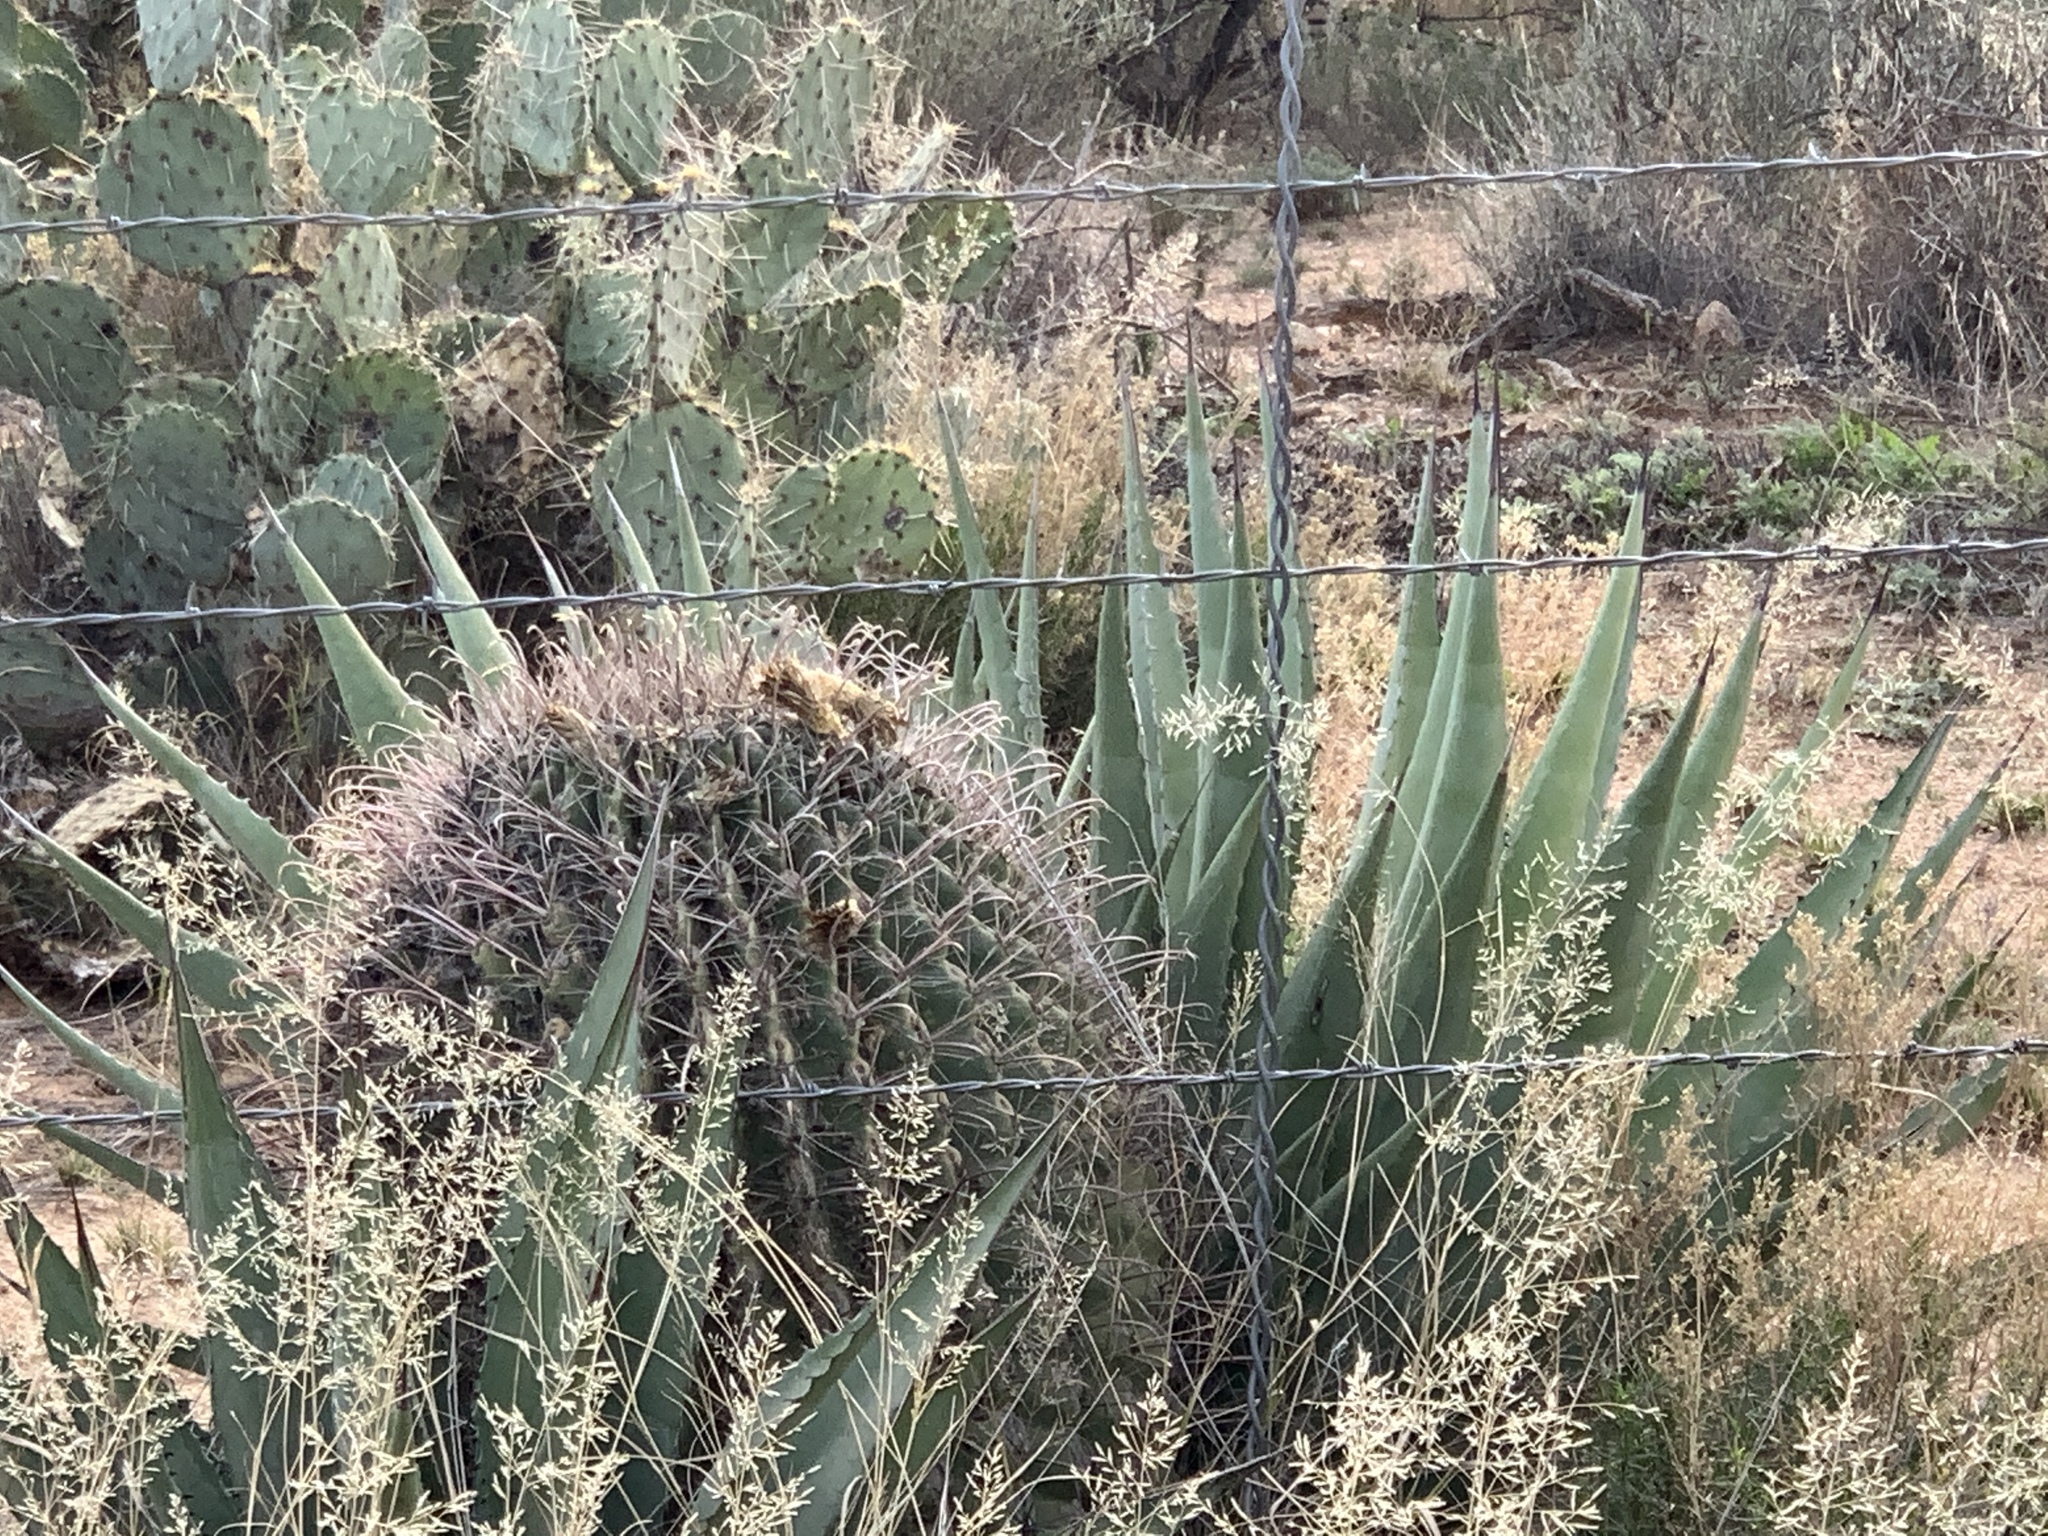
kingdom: Plantae
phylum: Tracheophyta
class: Magnoliopsida
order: Caryophyllales
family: Cactaceae
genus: Ferocactus
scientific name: Ferocactus wislizeni
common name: Candy barrel cactus
